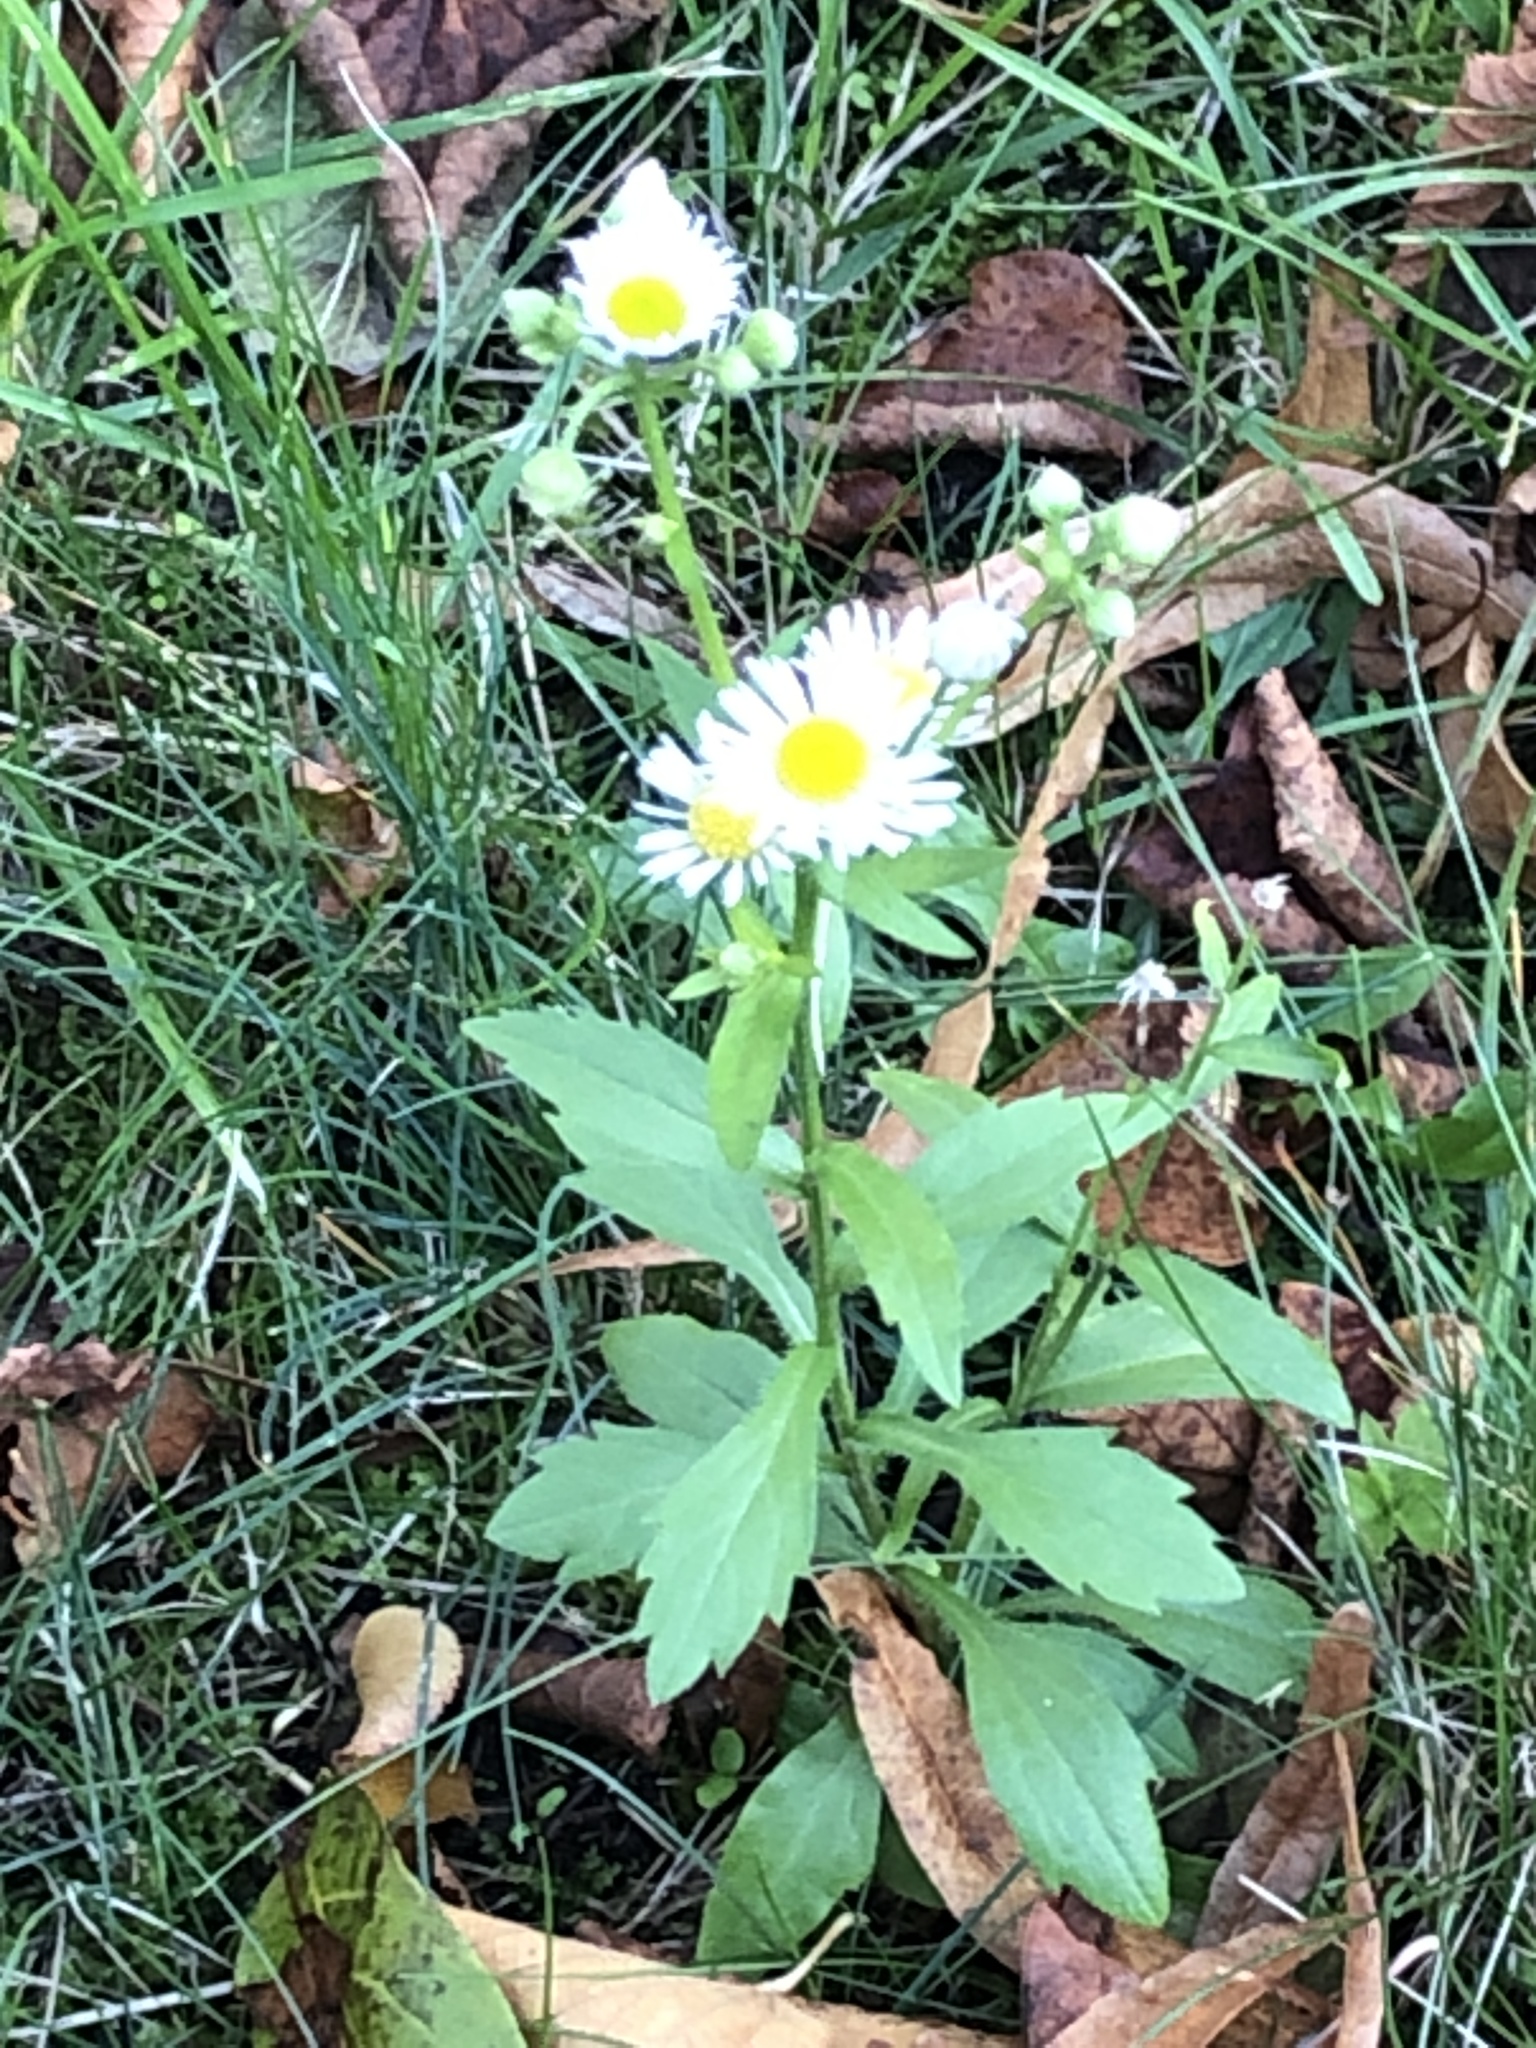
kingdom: Plantae
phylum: Tracheophyta
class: Magnoliopsida
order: Asterales
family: Asteraceae
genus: Erigeron
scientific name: Erigeron annuus
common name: Tall fleabane
